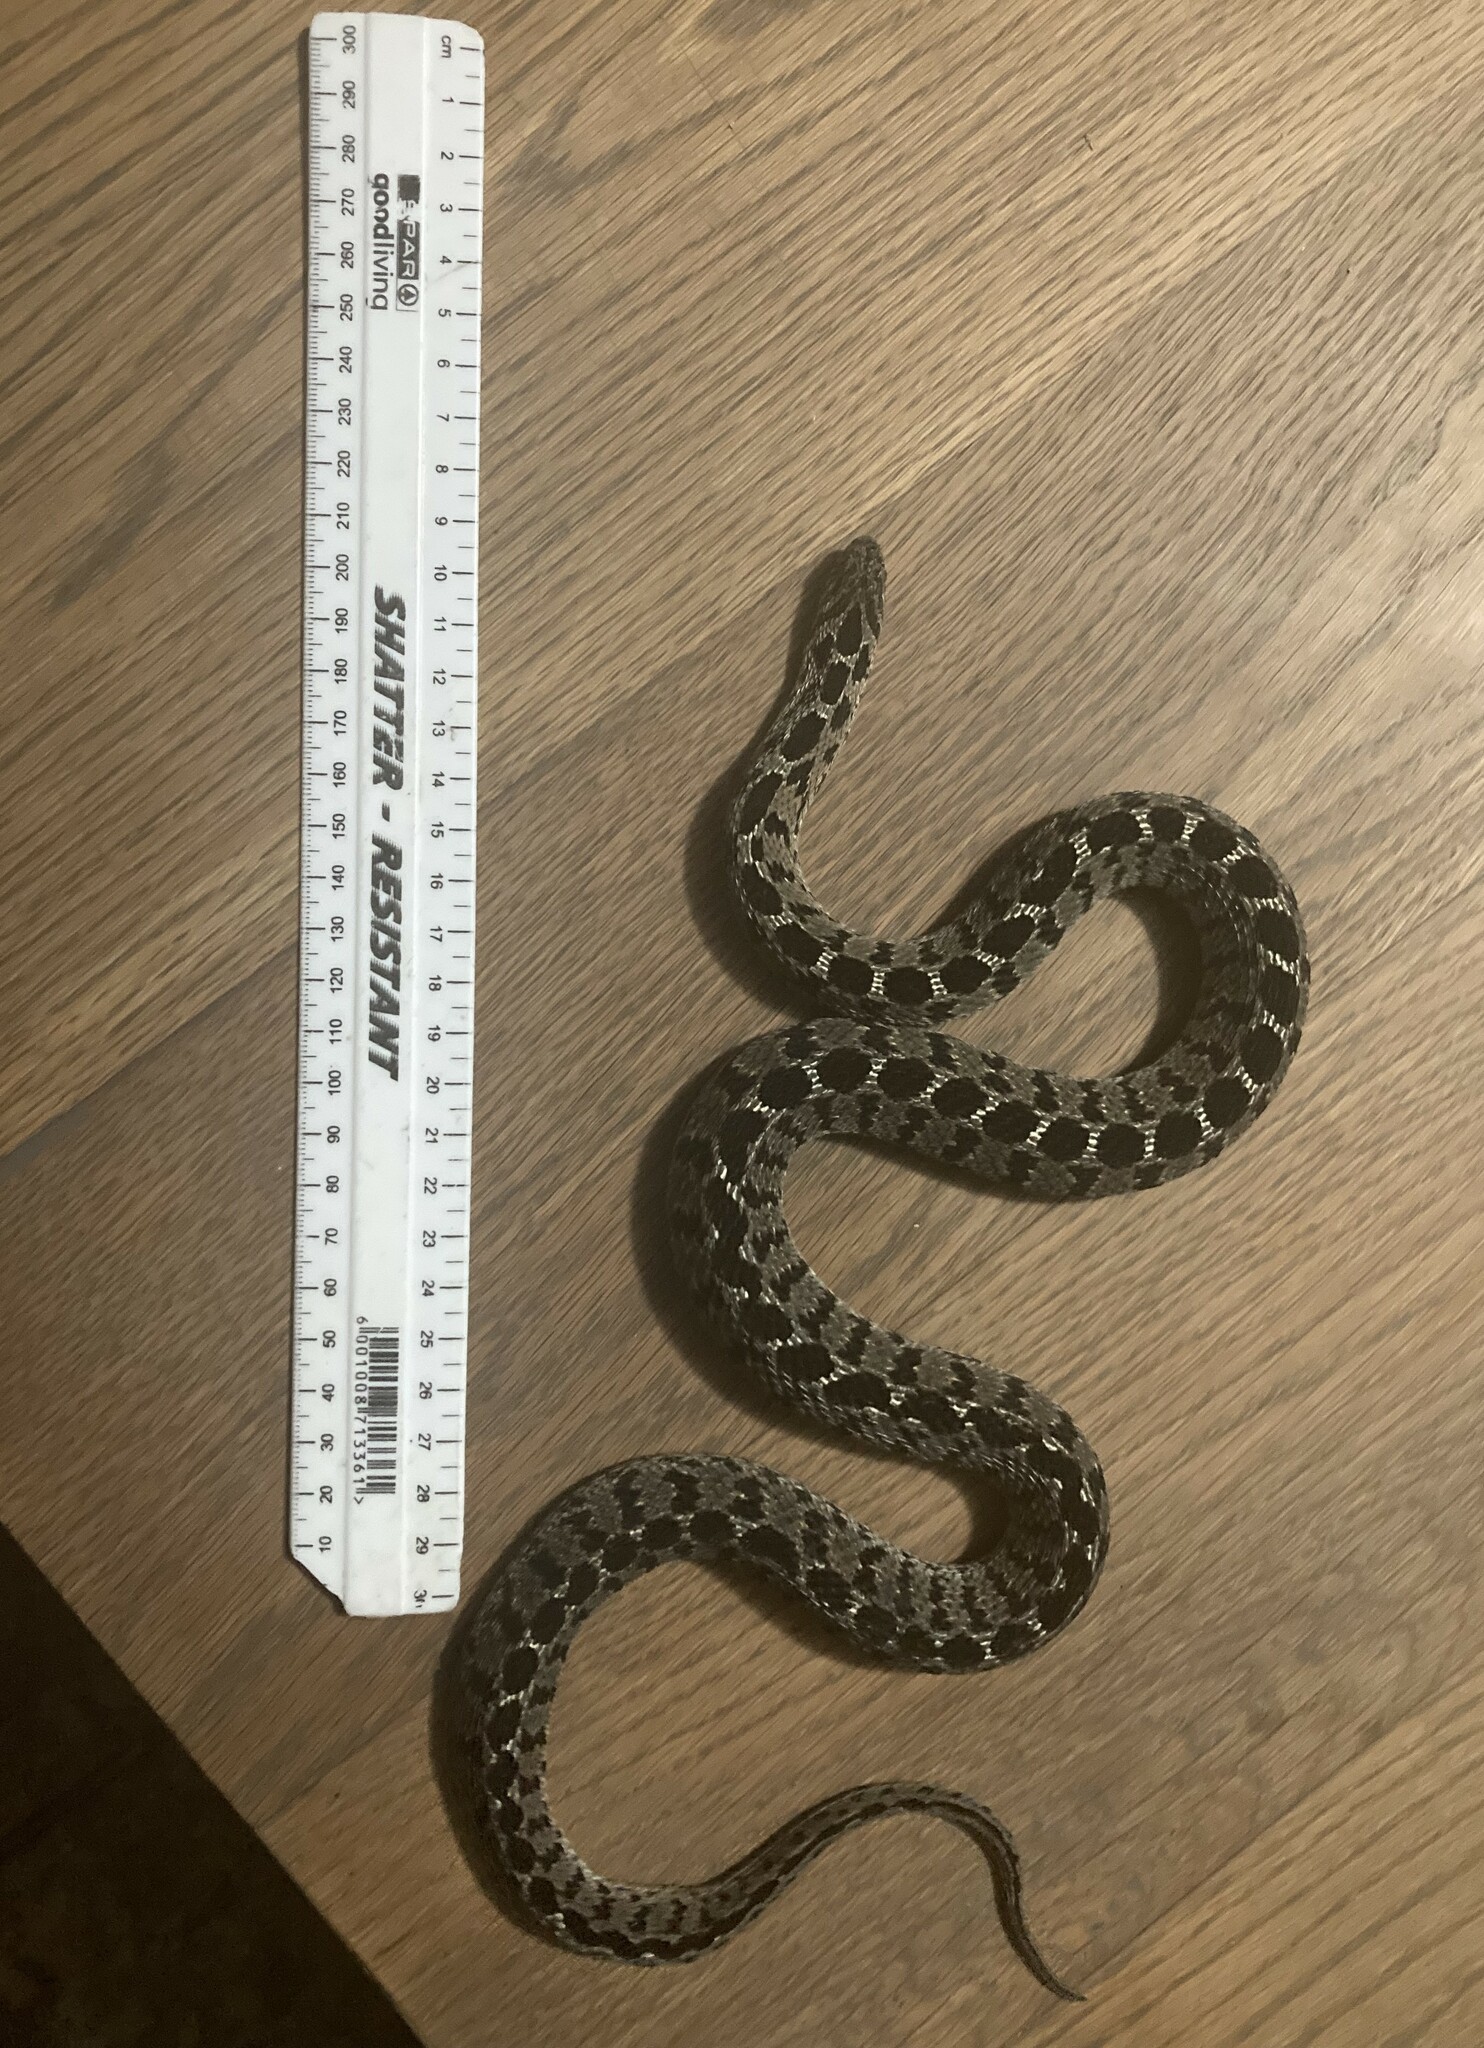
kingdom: Animalia
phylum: Chordata
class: Squamata
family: Colubridae
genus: Dasypeltis
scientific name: Dasypeltis scabra
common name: Common egg eater
